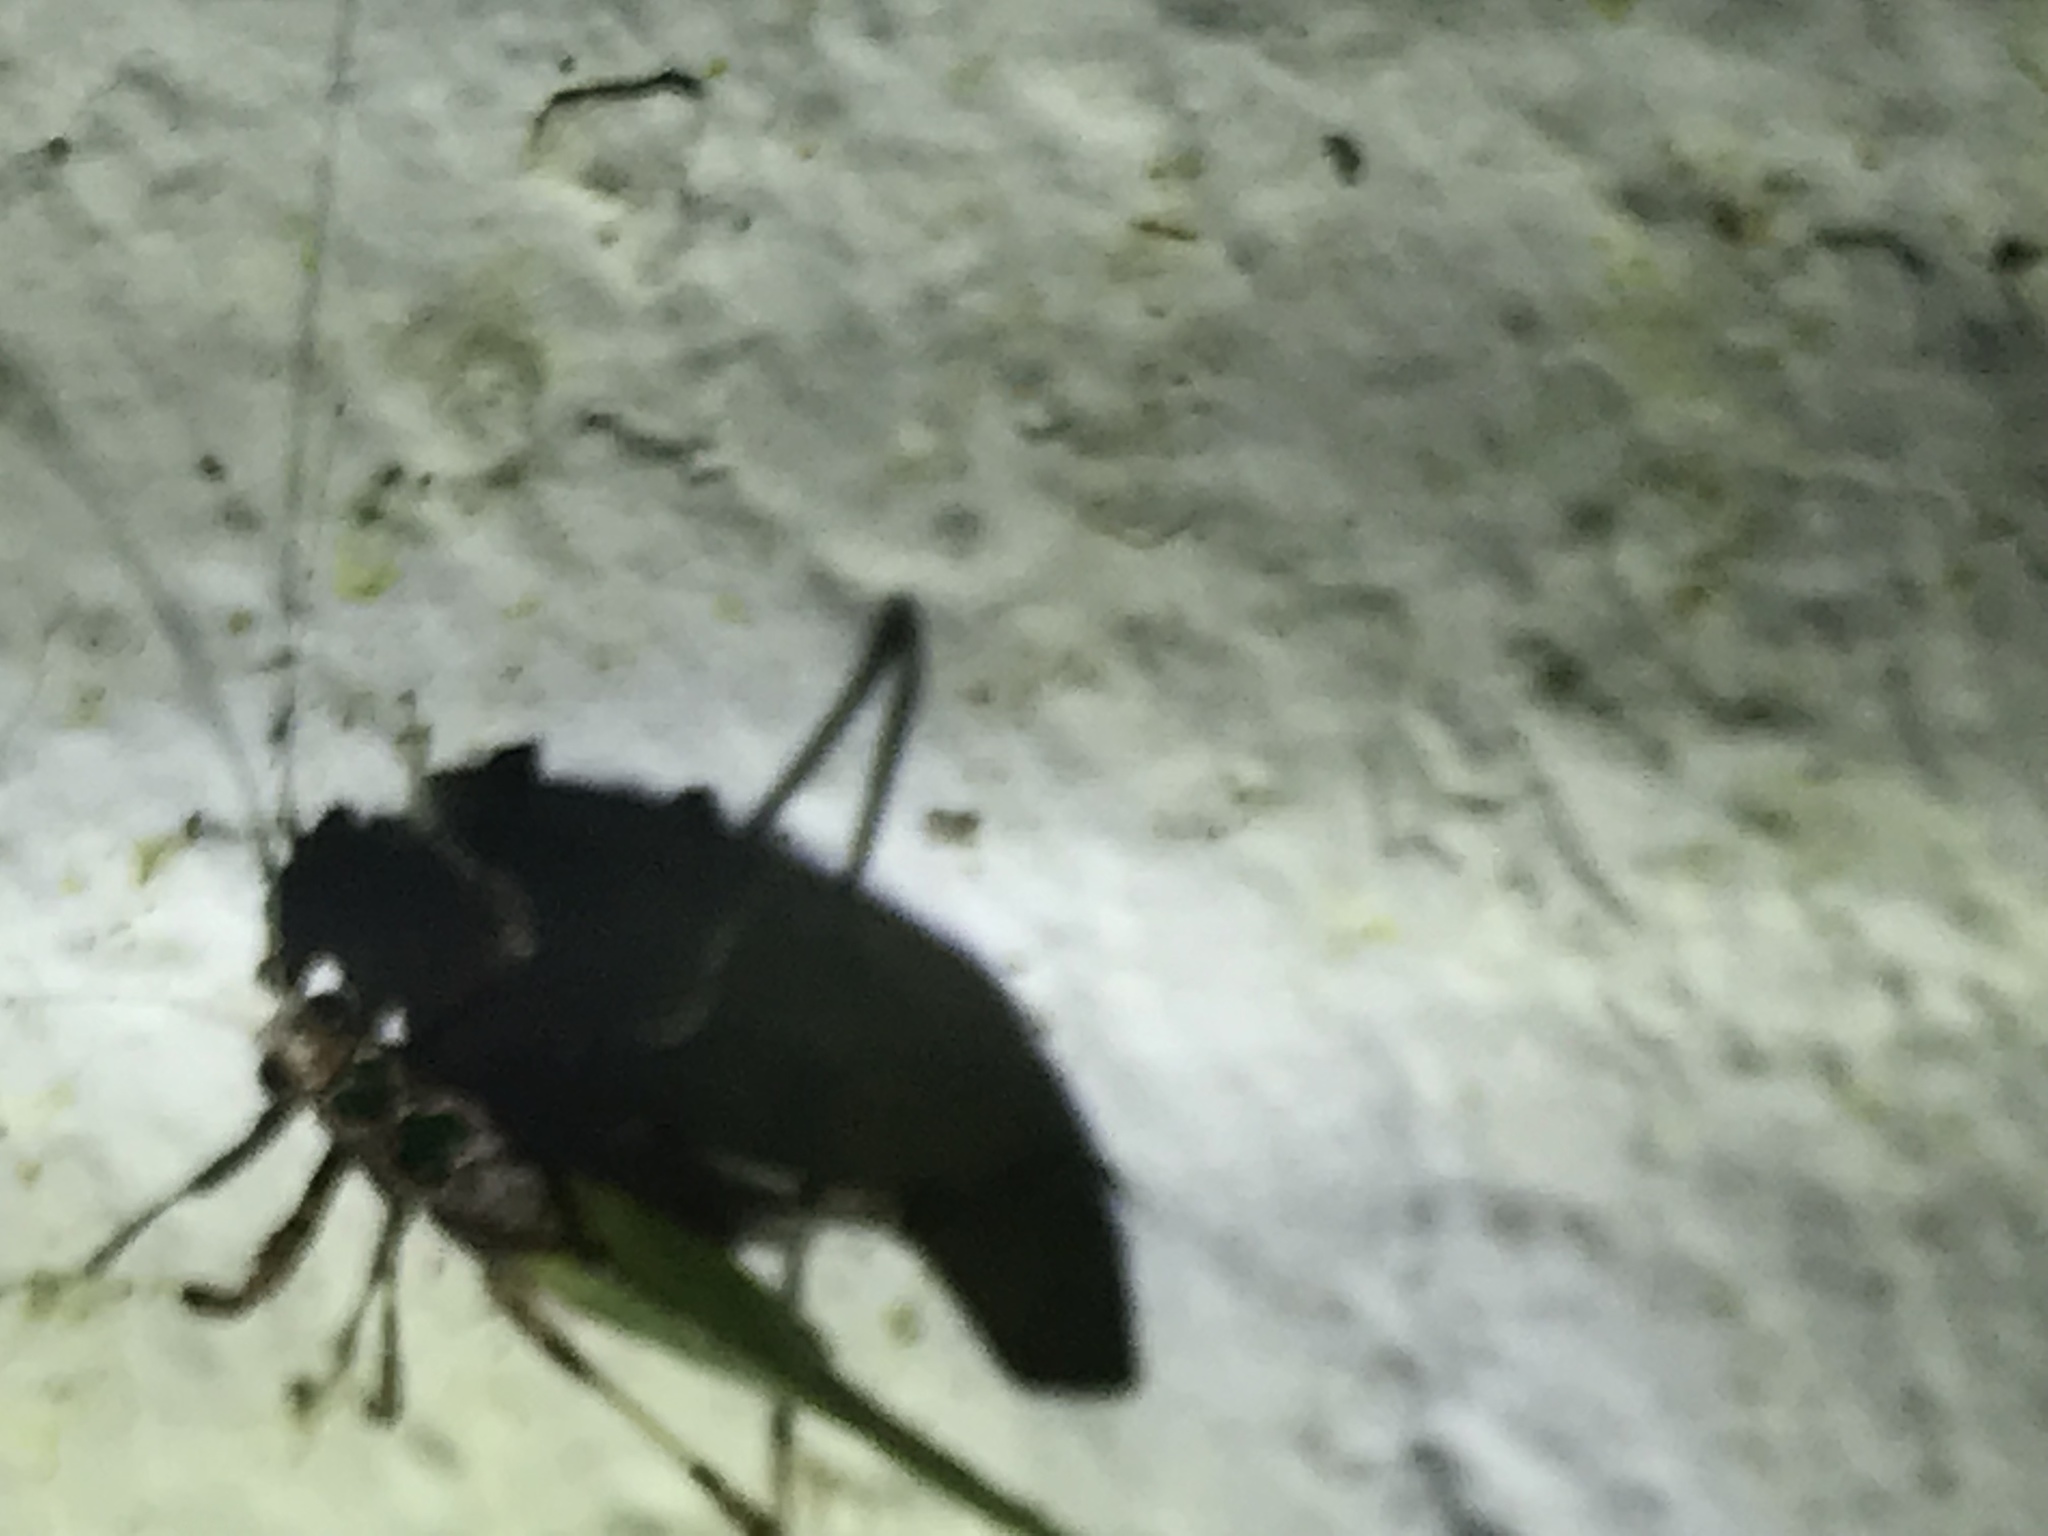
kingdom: Animalia
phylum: Arthropoda
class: Insecta
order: Orthoptera
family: Tettigoniidae
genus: Pycnopalpa
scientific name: Pycnopalpa bicordata
